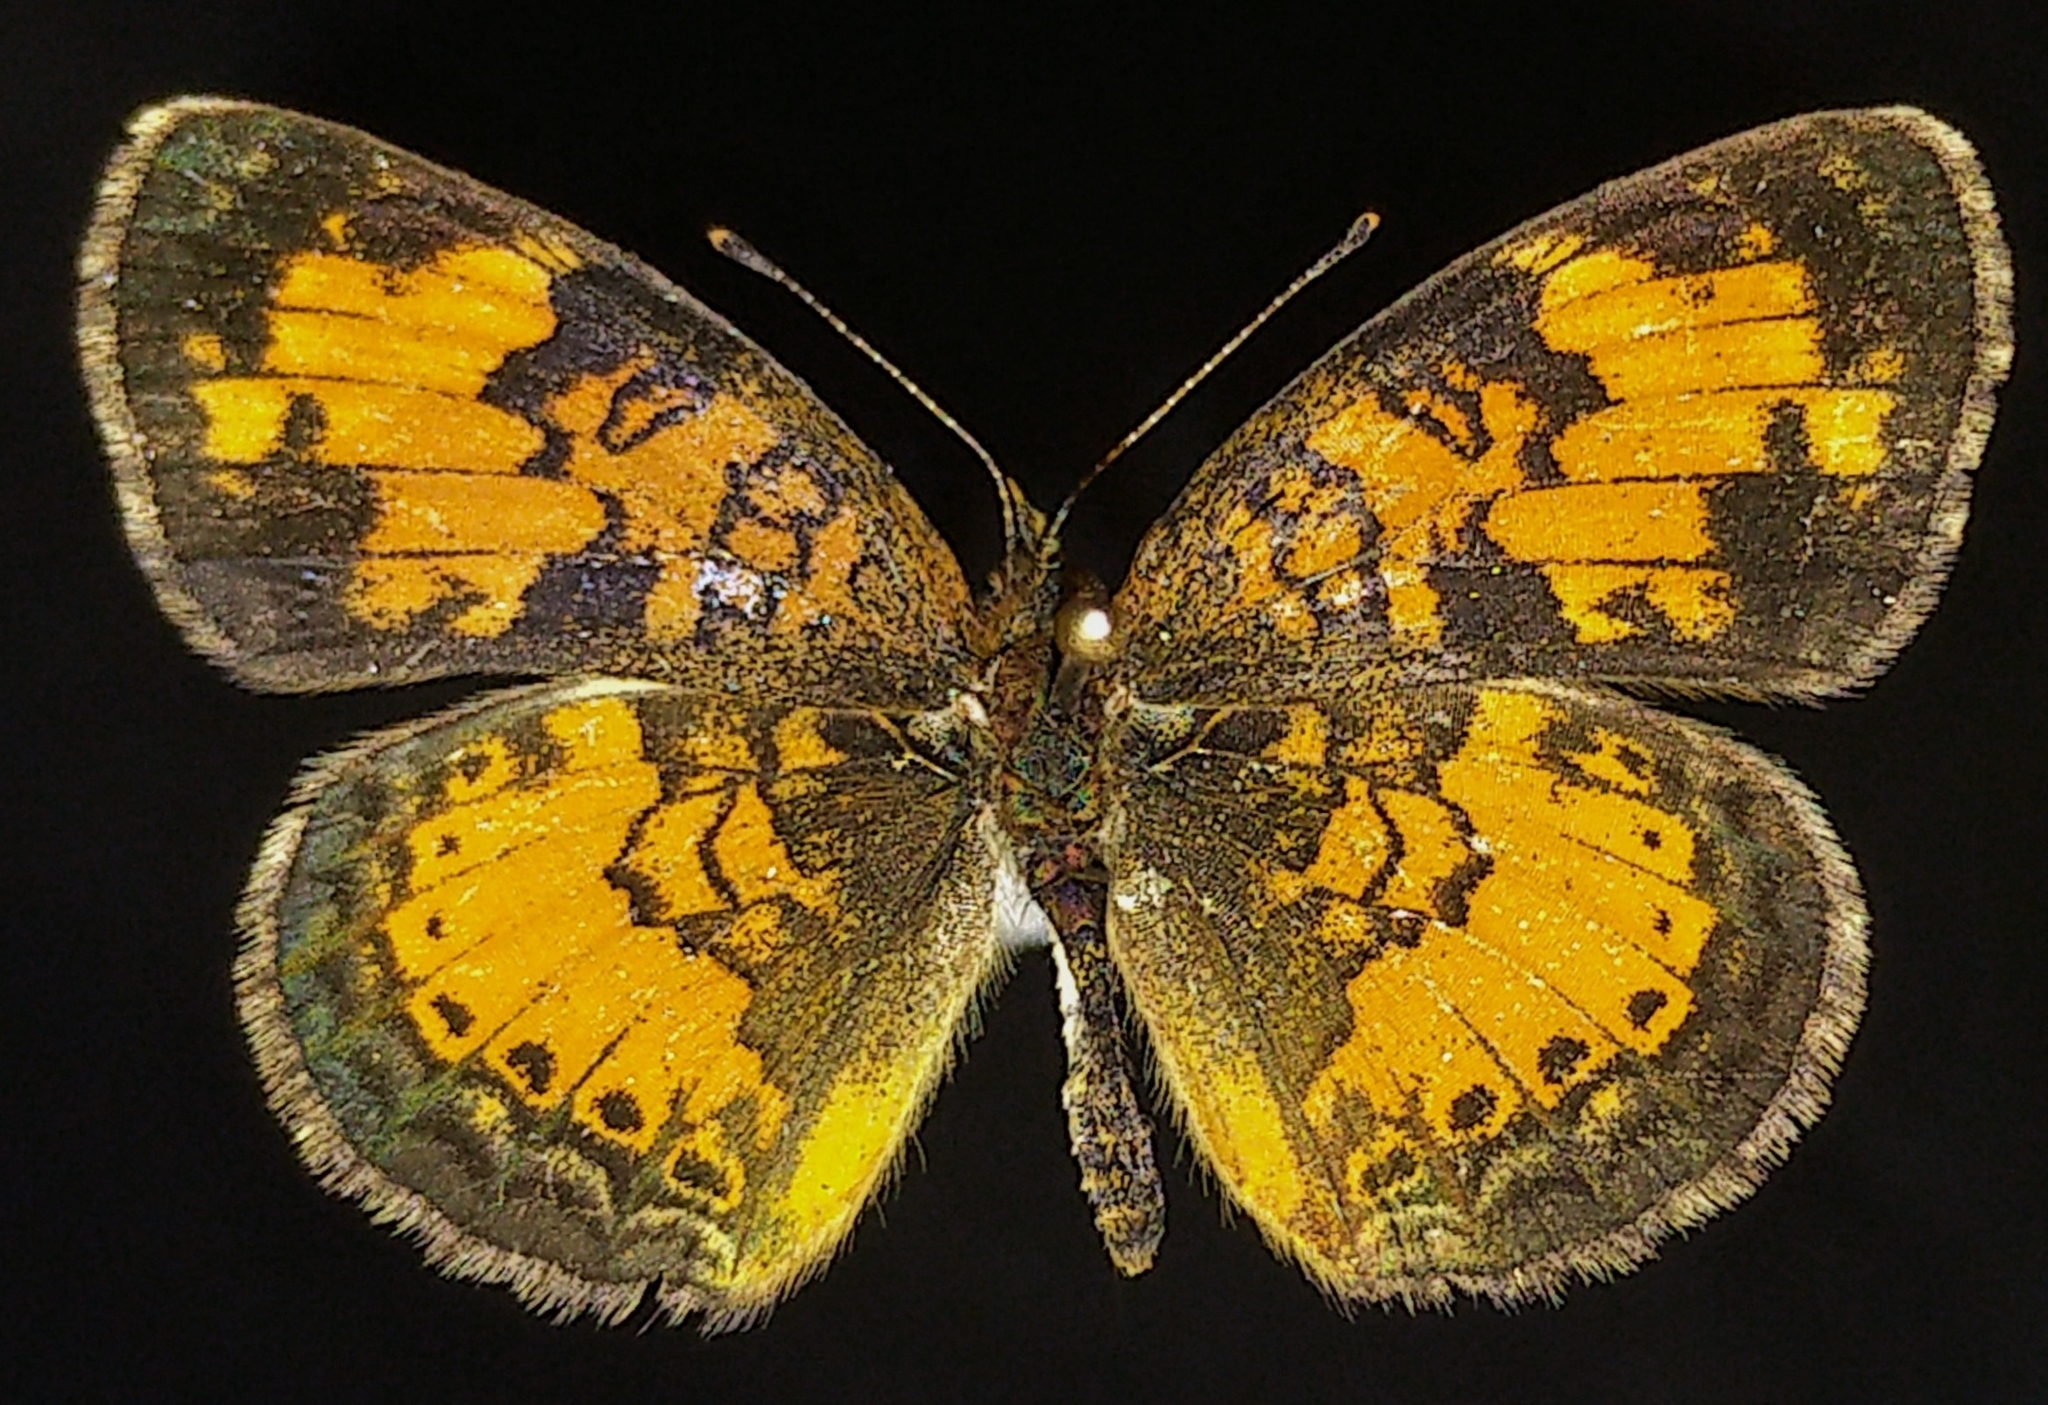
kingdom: Animalia
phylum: Arthropoda
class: Insecta
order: Lepidoptera
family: Nymphalidae
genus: Phyciodes
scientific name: Phyciodes tharos
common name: Pearl crescent
